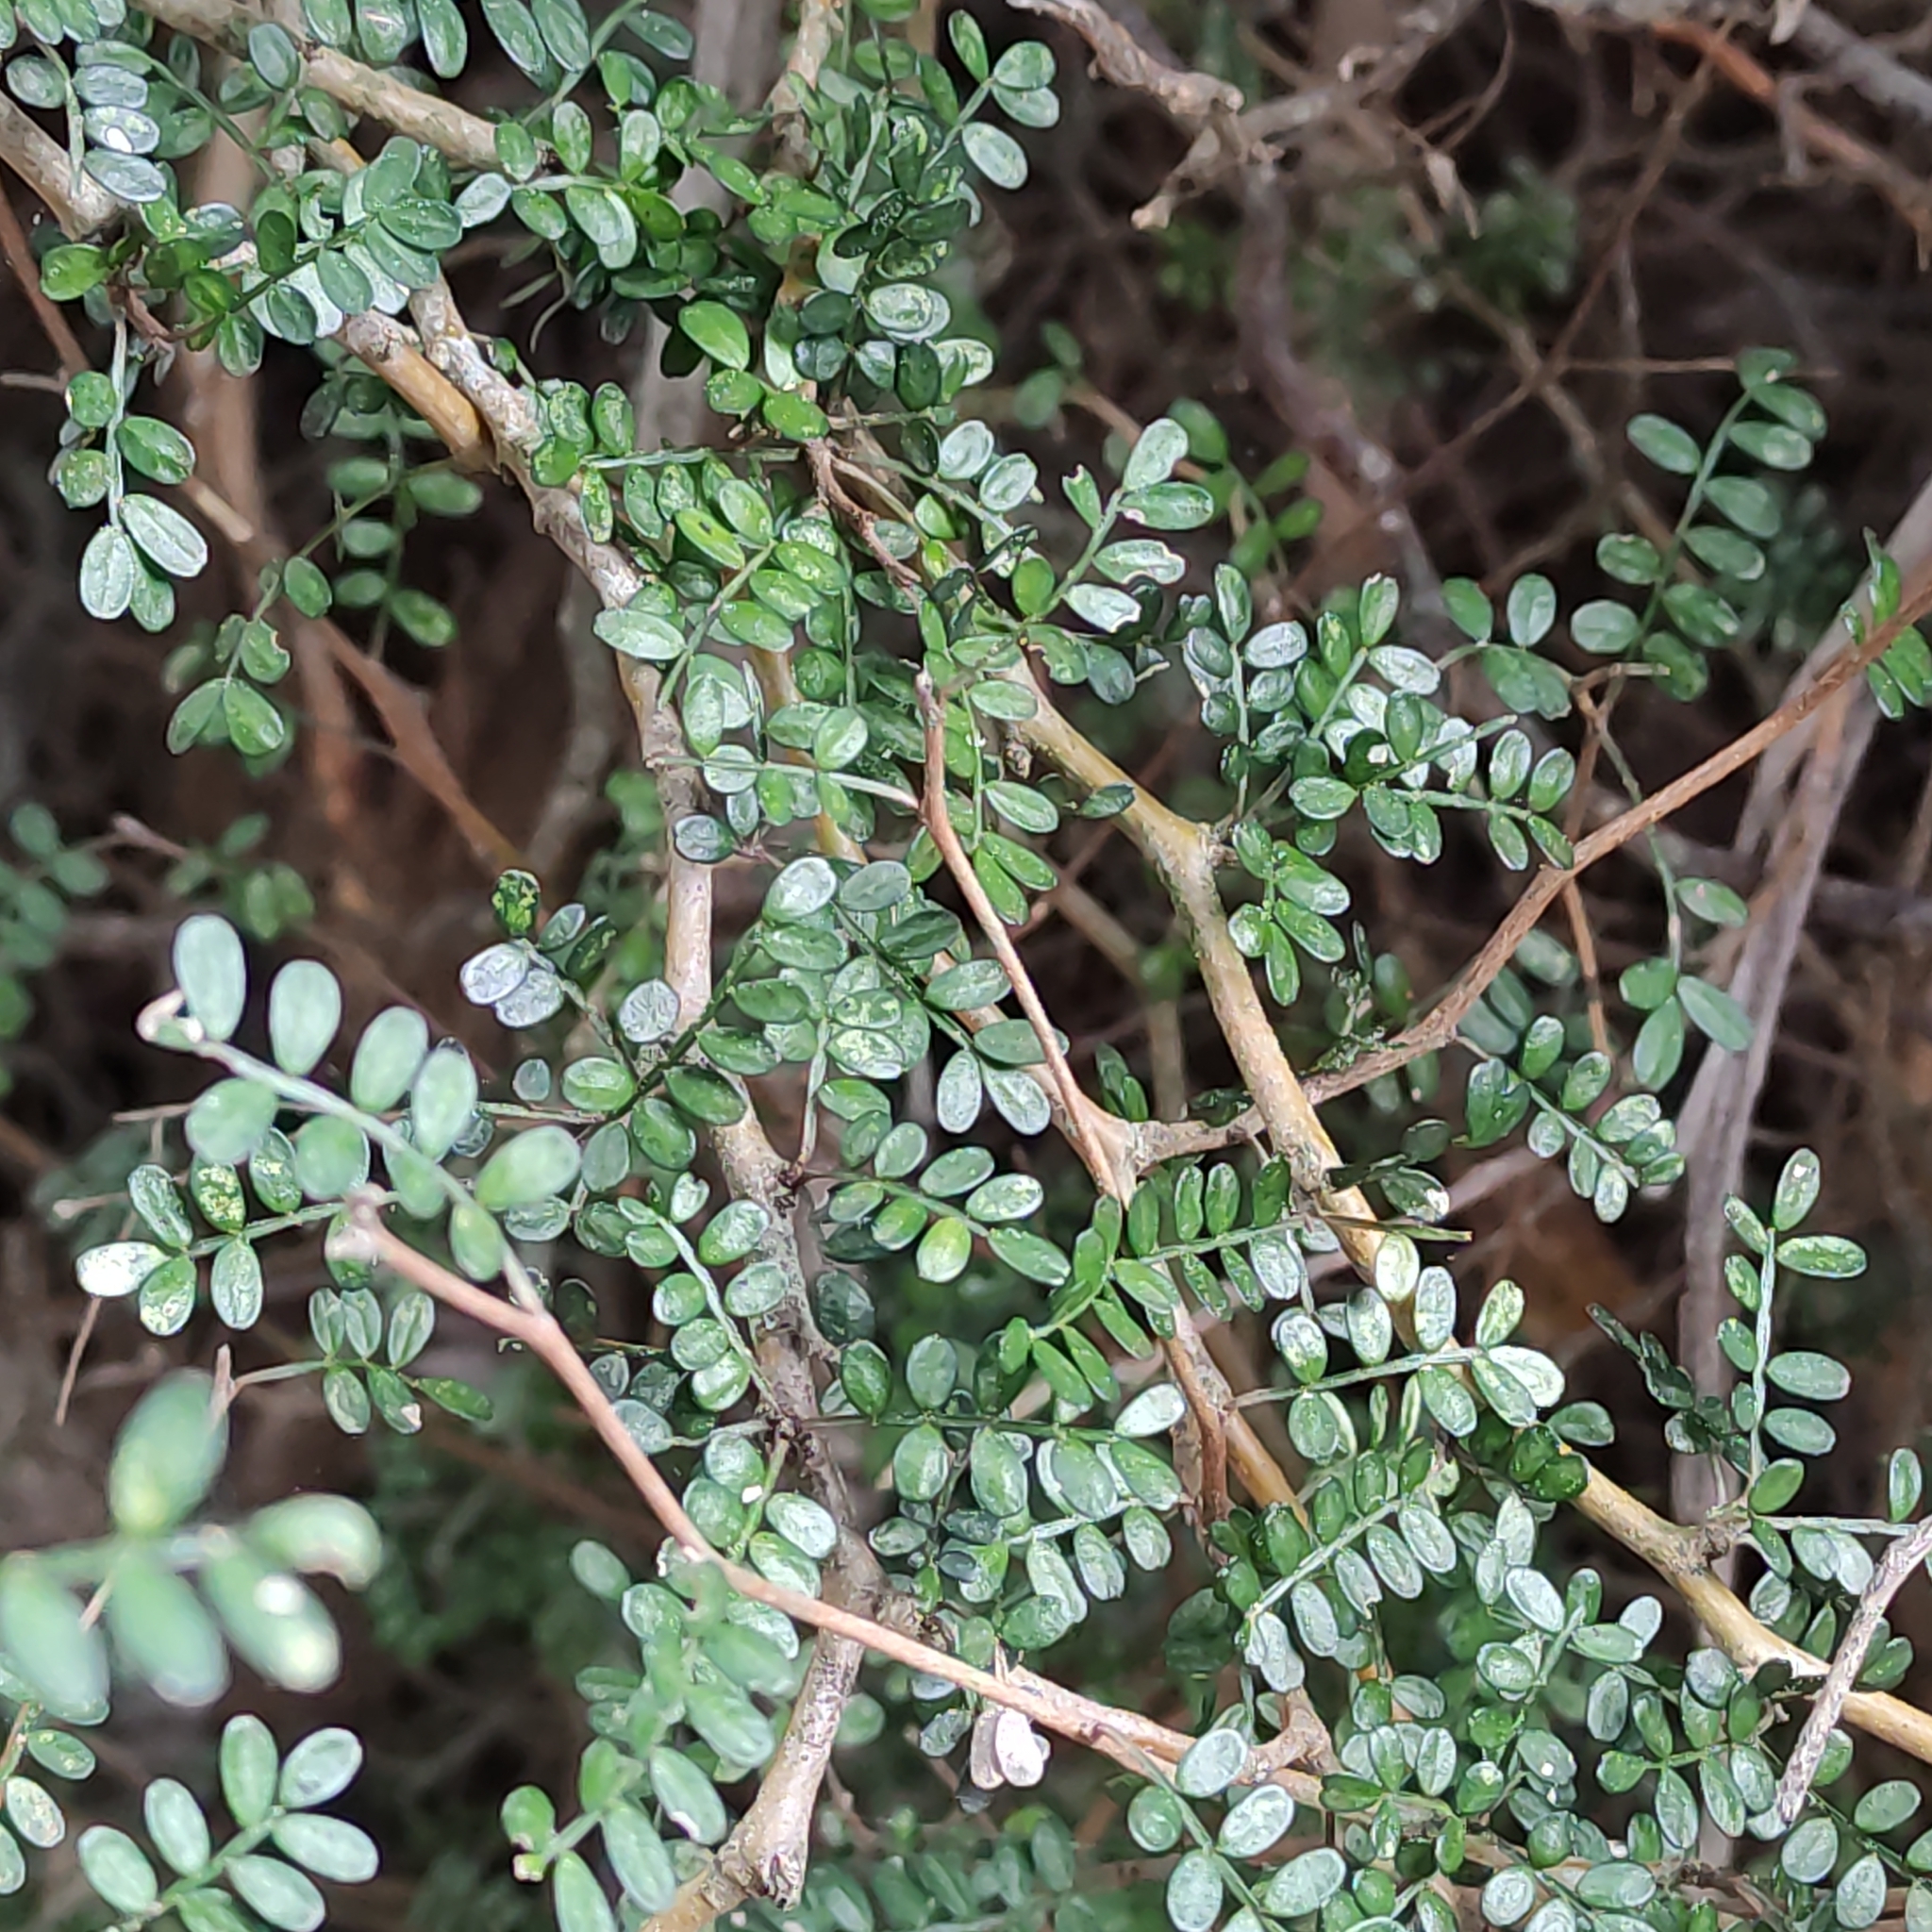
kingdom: Plantae
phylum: Tracheophyta
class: Magnoliopsida
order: Fabales
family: Fabaceae
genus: Sophora
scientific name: Sophora prostrata
